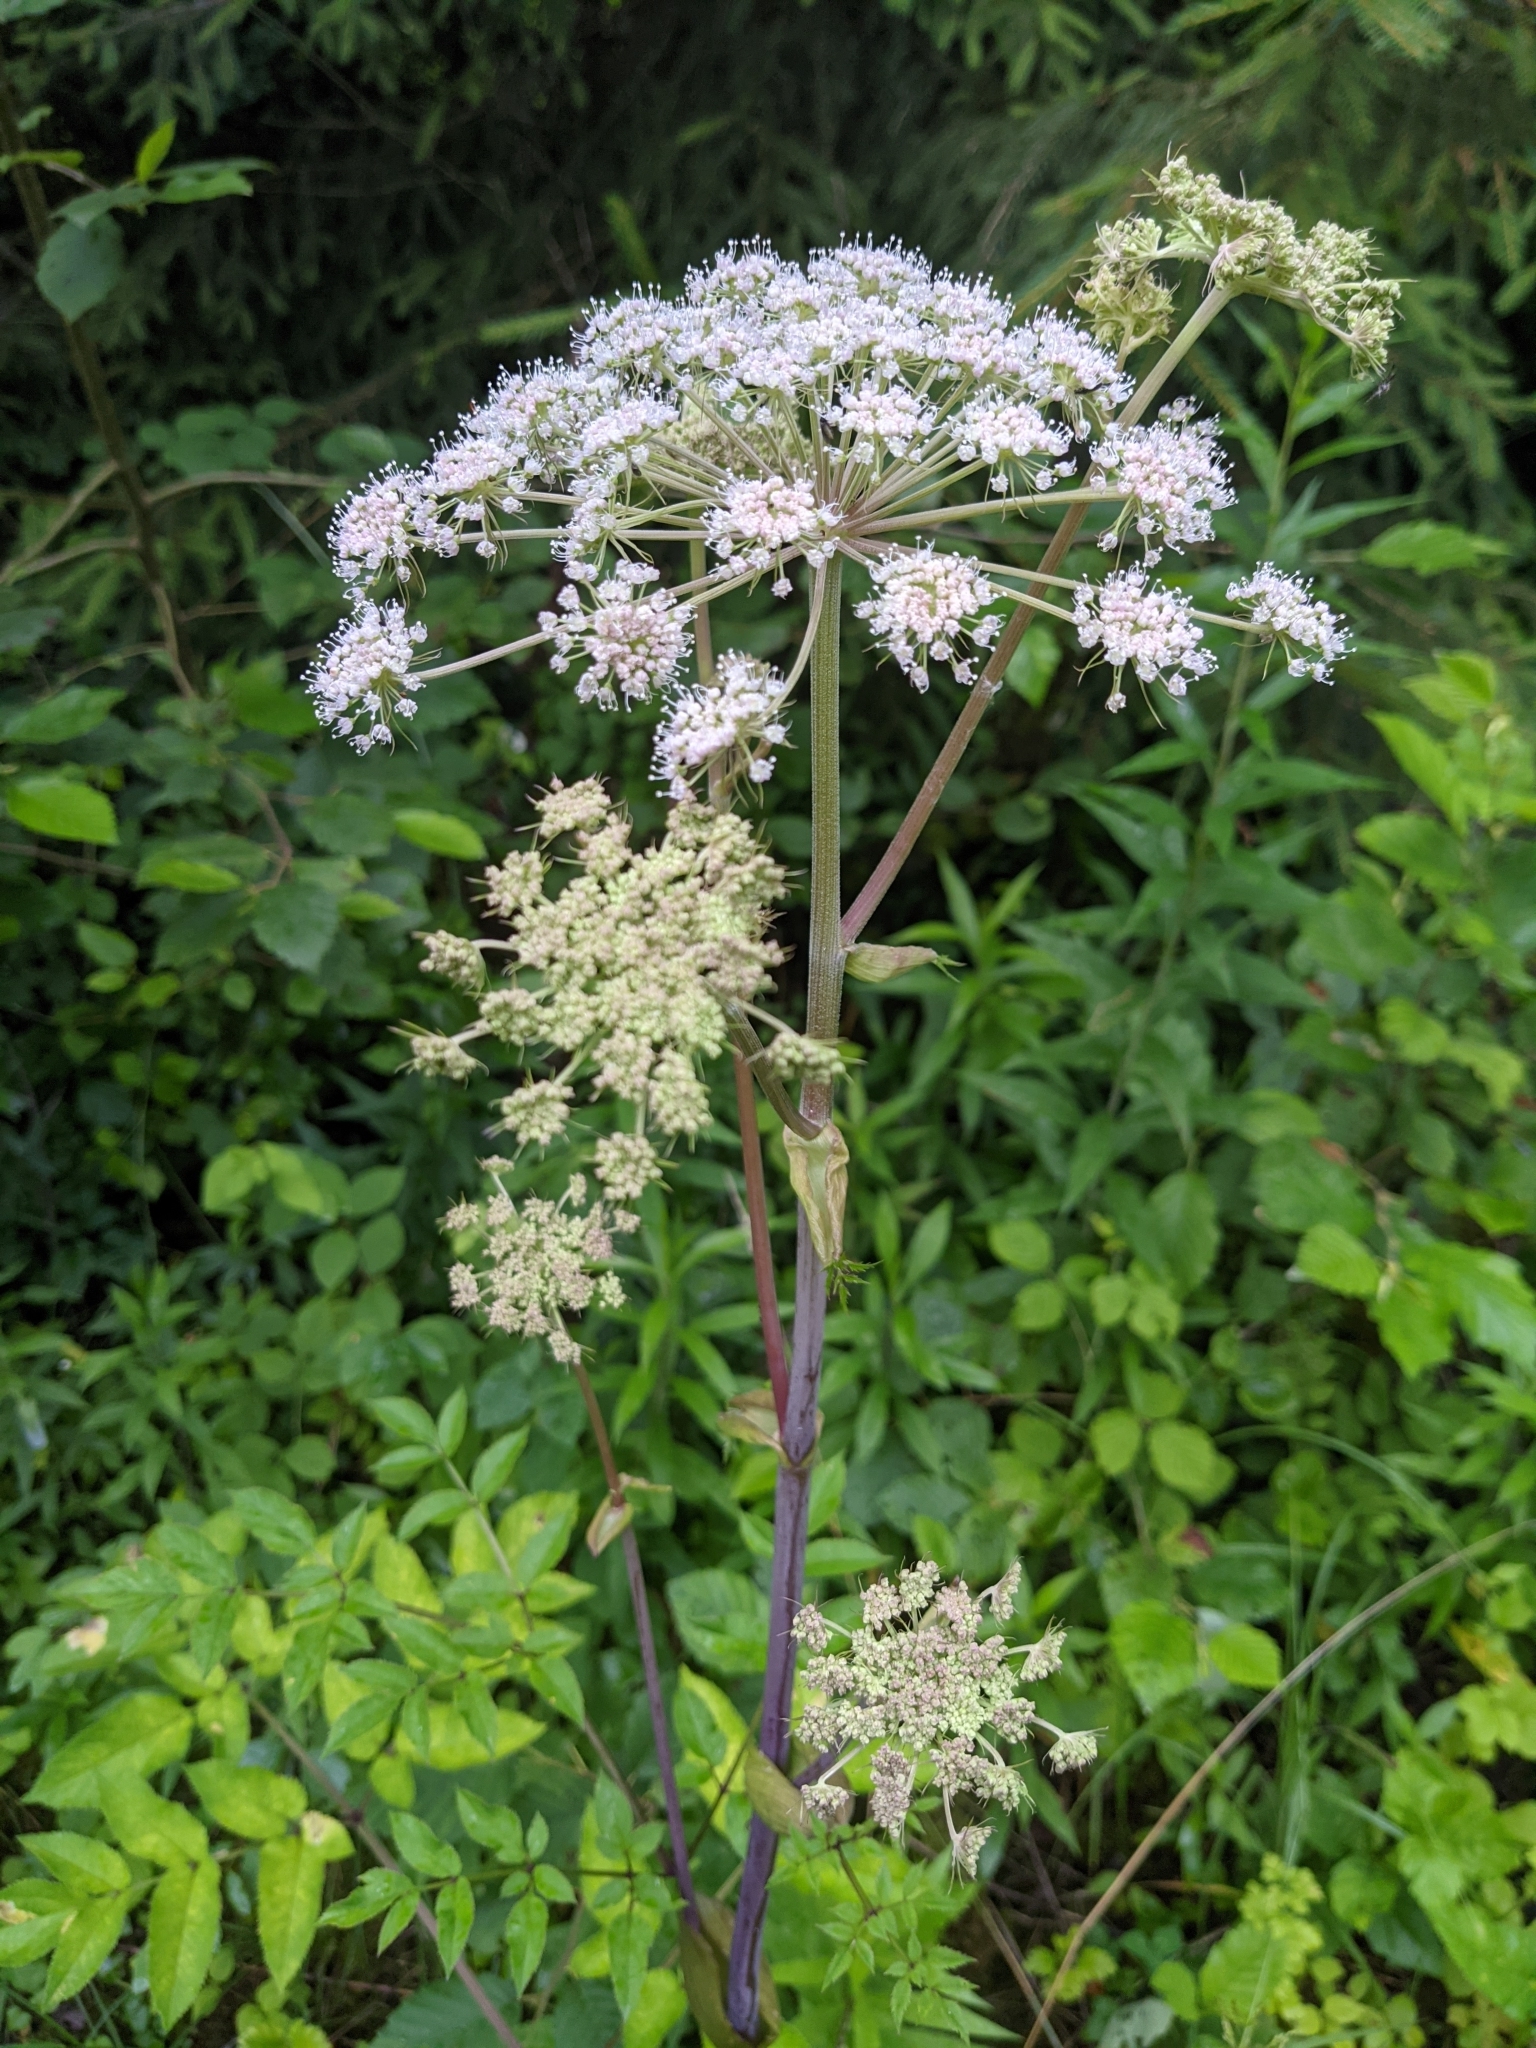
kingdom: Plantae
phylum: Tracheophyta
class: Magnoliopsida
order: Apiales
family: Apiaceae
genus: Angelica
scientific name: Angelica sylvestris
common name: Wild angelica
